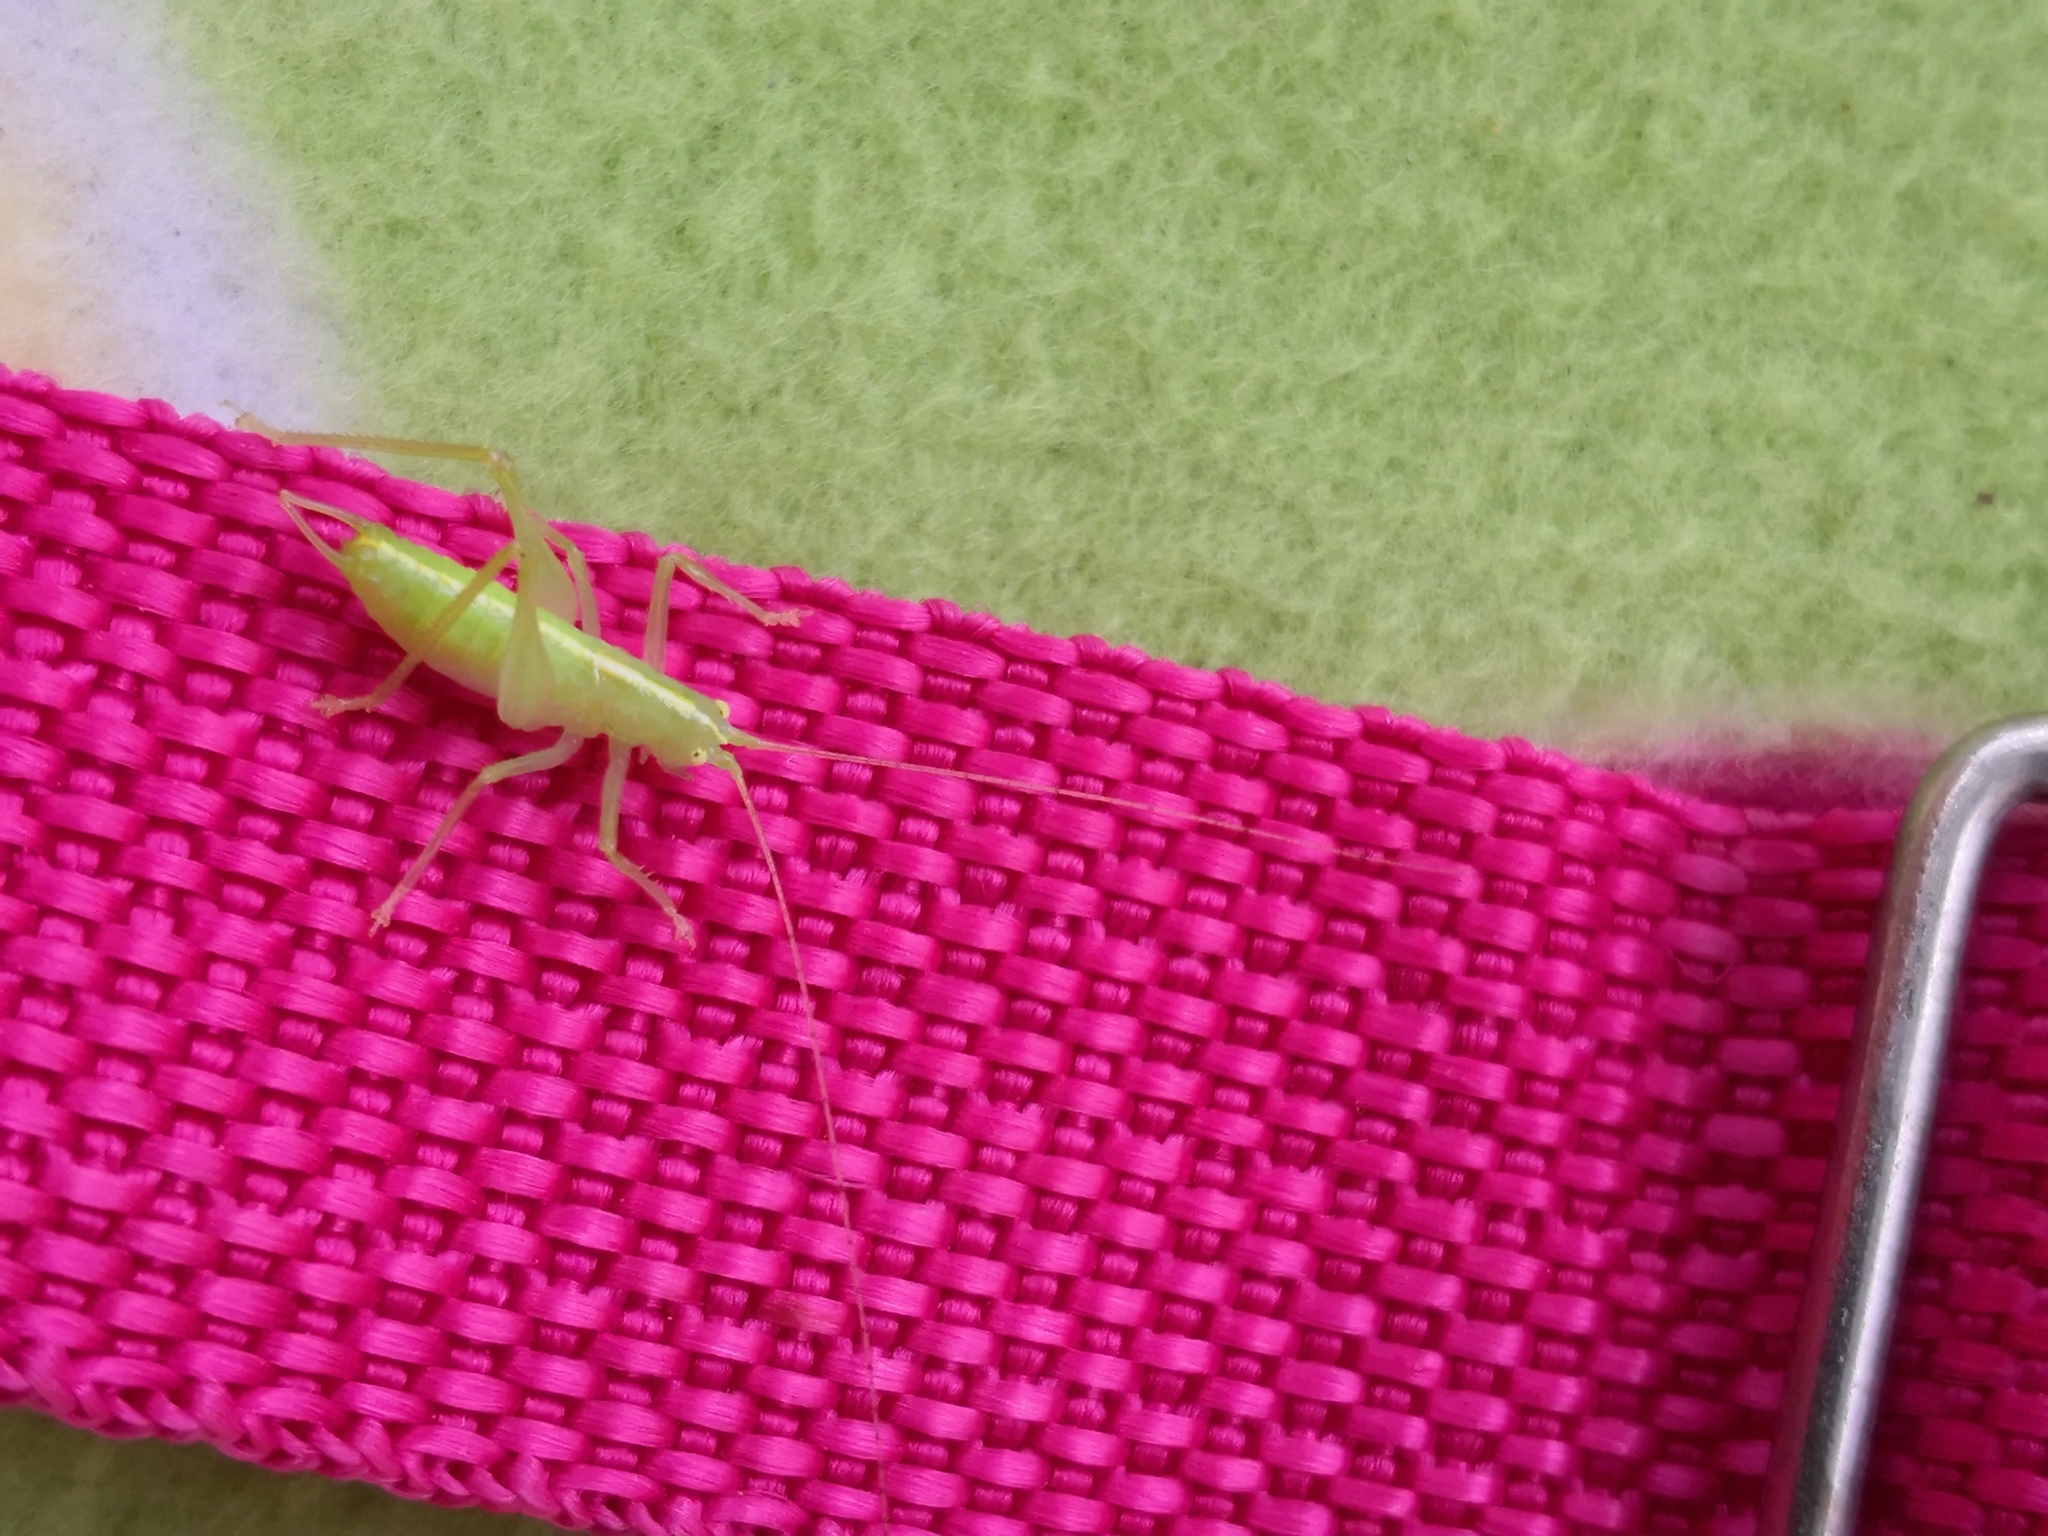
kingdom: Animalia
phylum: Arthropoda
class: Insecta
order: Orthoptera
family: Tettigoniidae
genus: Meconema
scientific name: Meconema meridionale
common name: Southern oak bush-cricket
